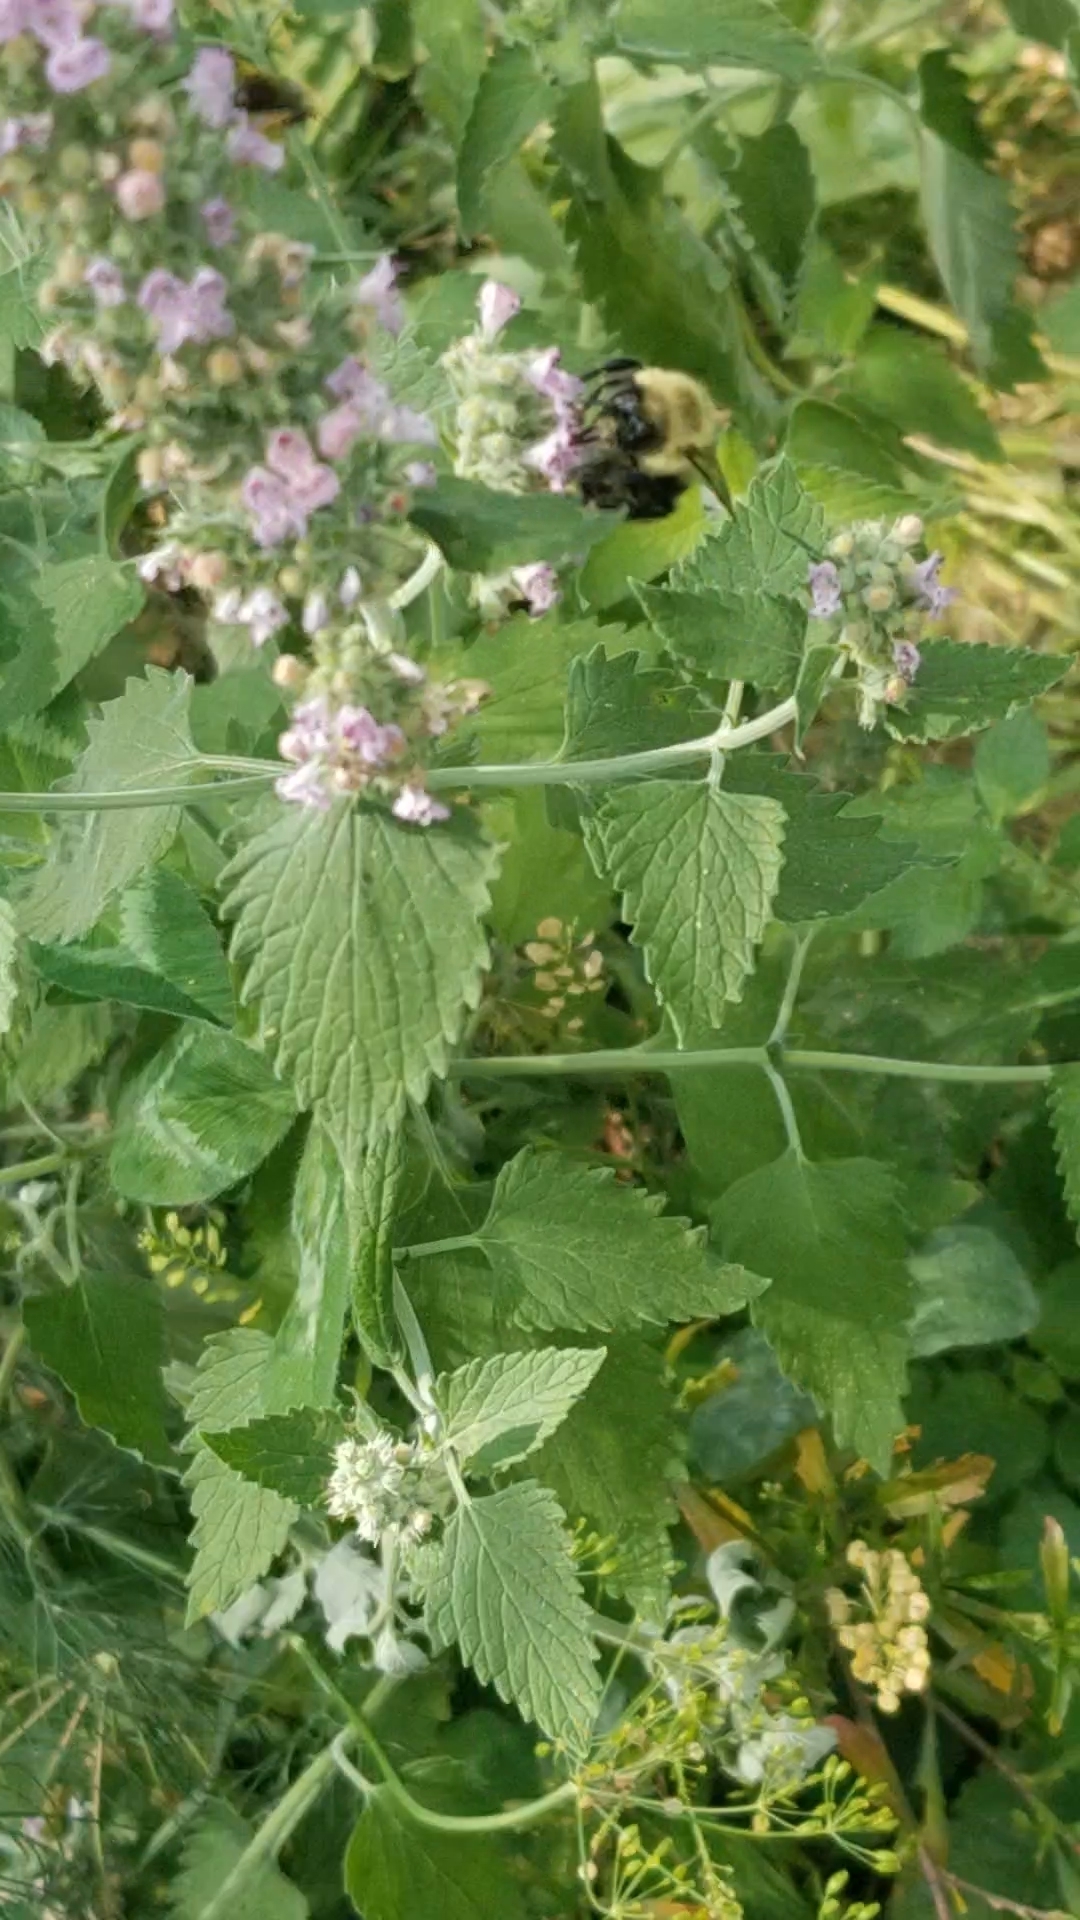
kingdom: Animalia
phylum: Arthropoda
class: Insecta
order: Hymenoptera
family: Apidae
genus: Bombus
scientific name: Bombus impatiens
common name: Common eastern bumble bee
